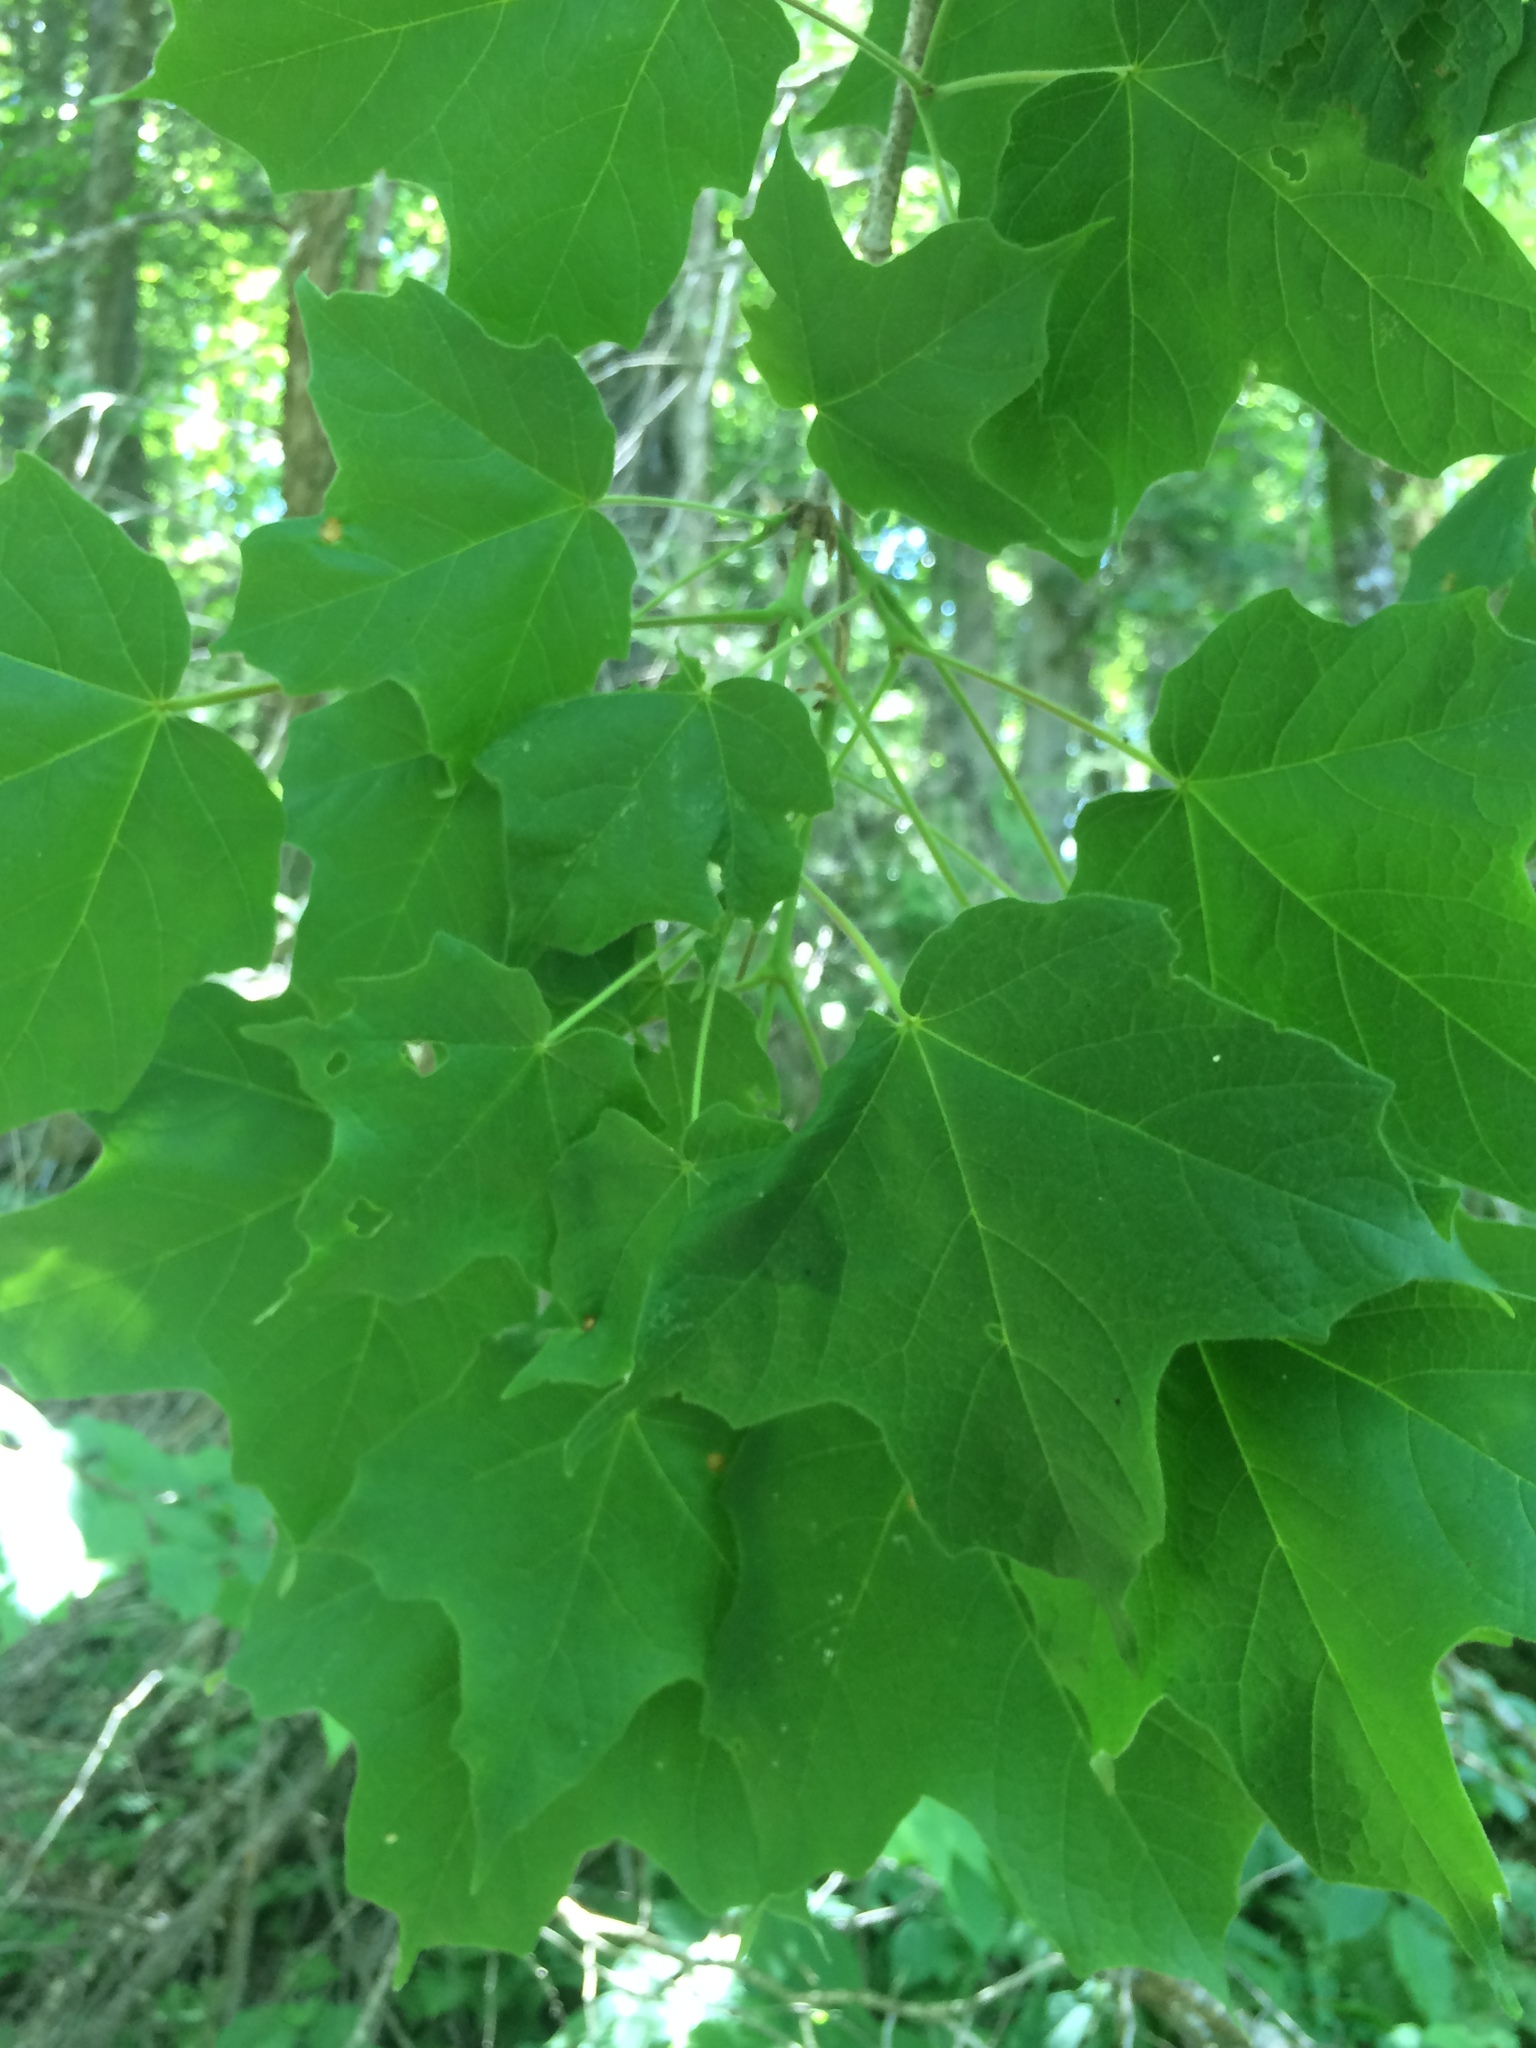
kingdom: Plantae
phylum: Tracheophyta
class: Magnoliopsida
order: Sapindales
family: Sapindaceae
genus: Acer
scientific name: Acer nigrum
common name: Black maple
